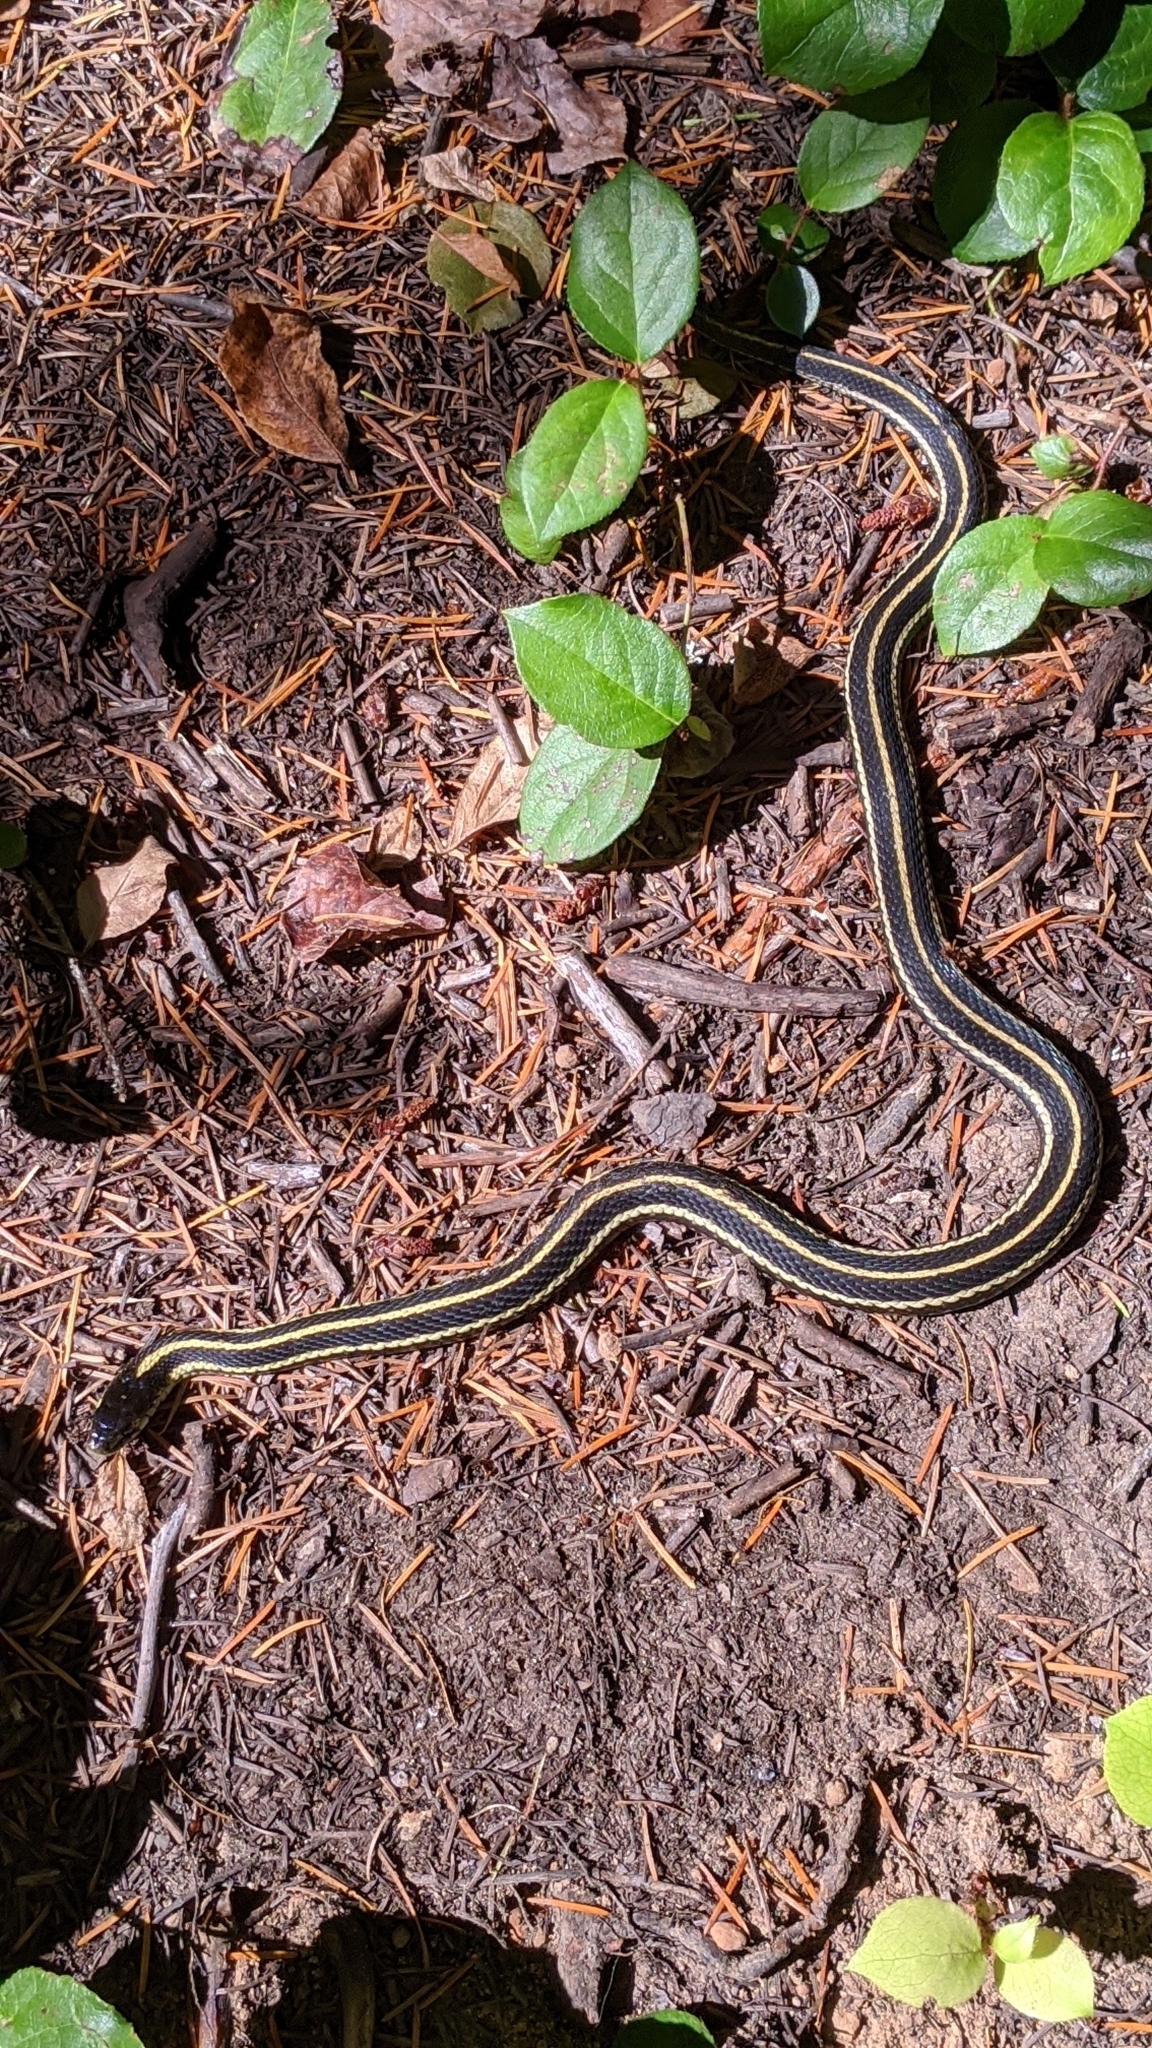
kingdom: Animalia
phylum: Chordata
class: Squamata
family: Colubridae
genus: Thamnophis
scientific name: Thamnophis sirtalis
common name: Common garter snake
